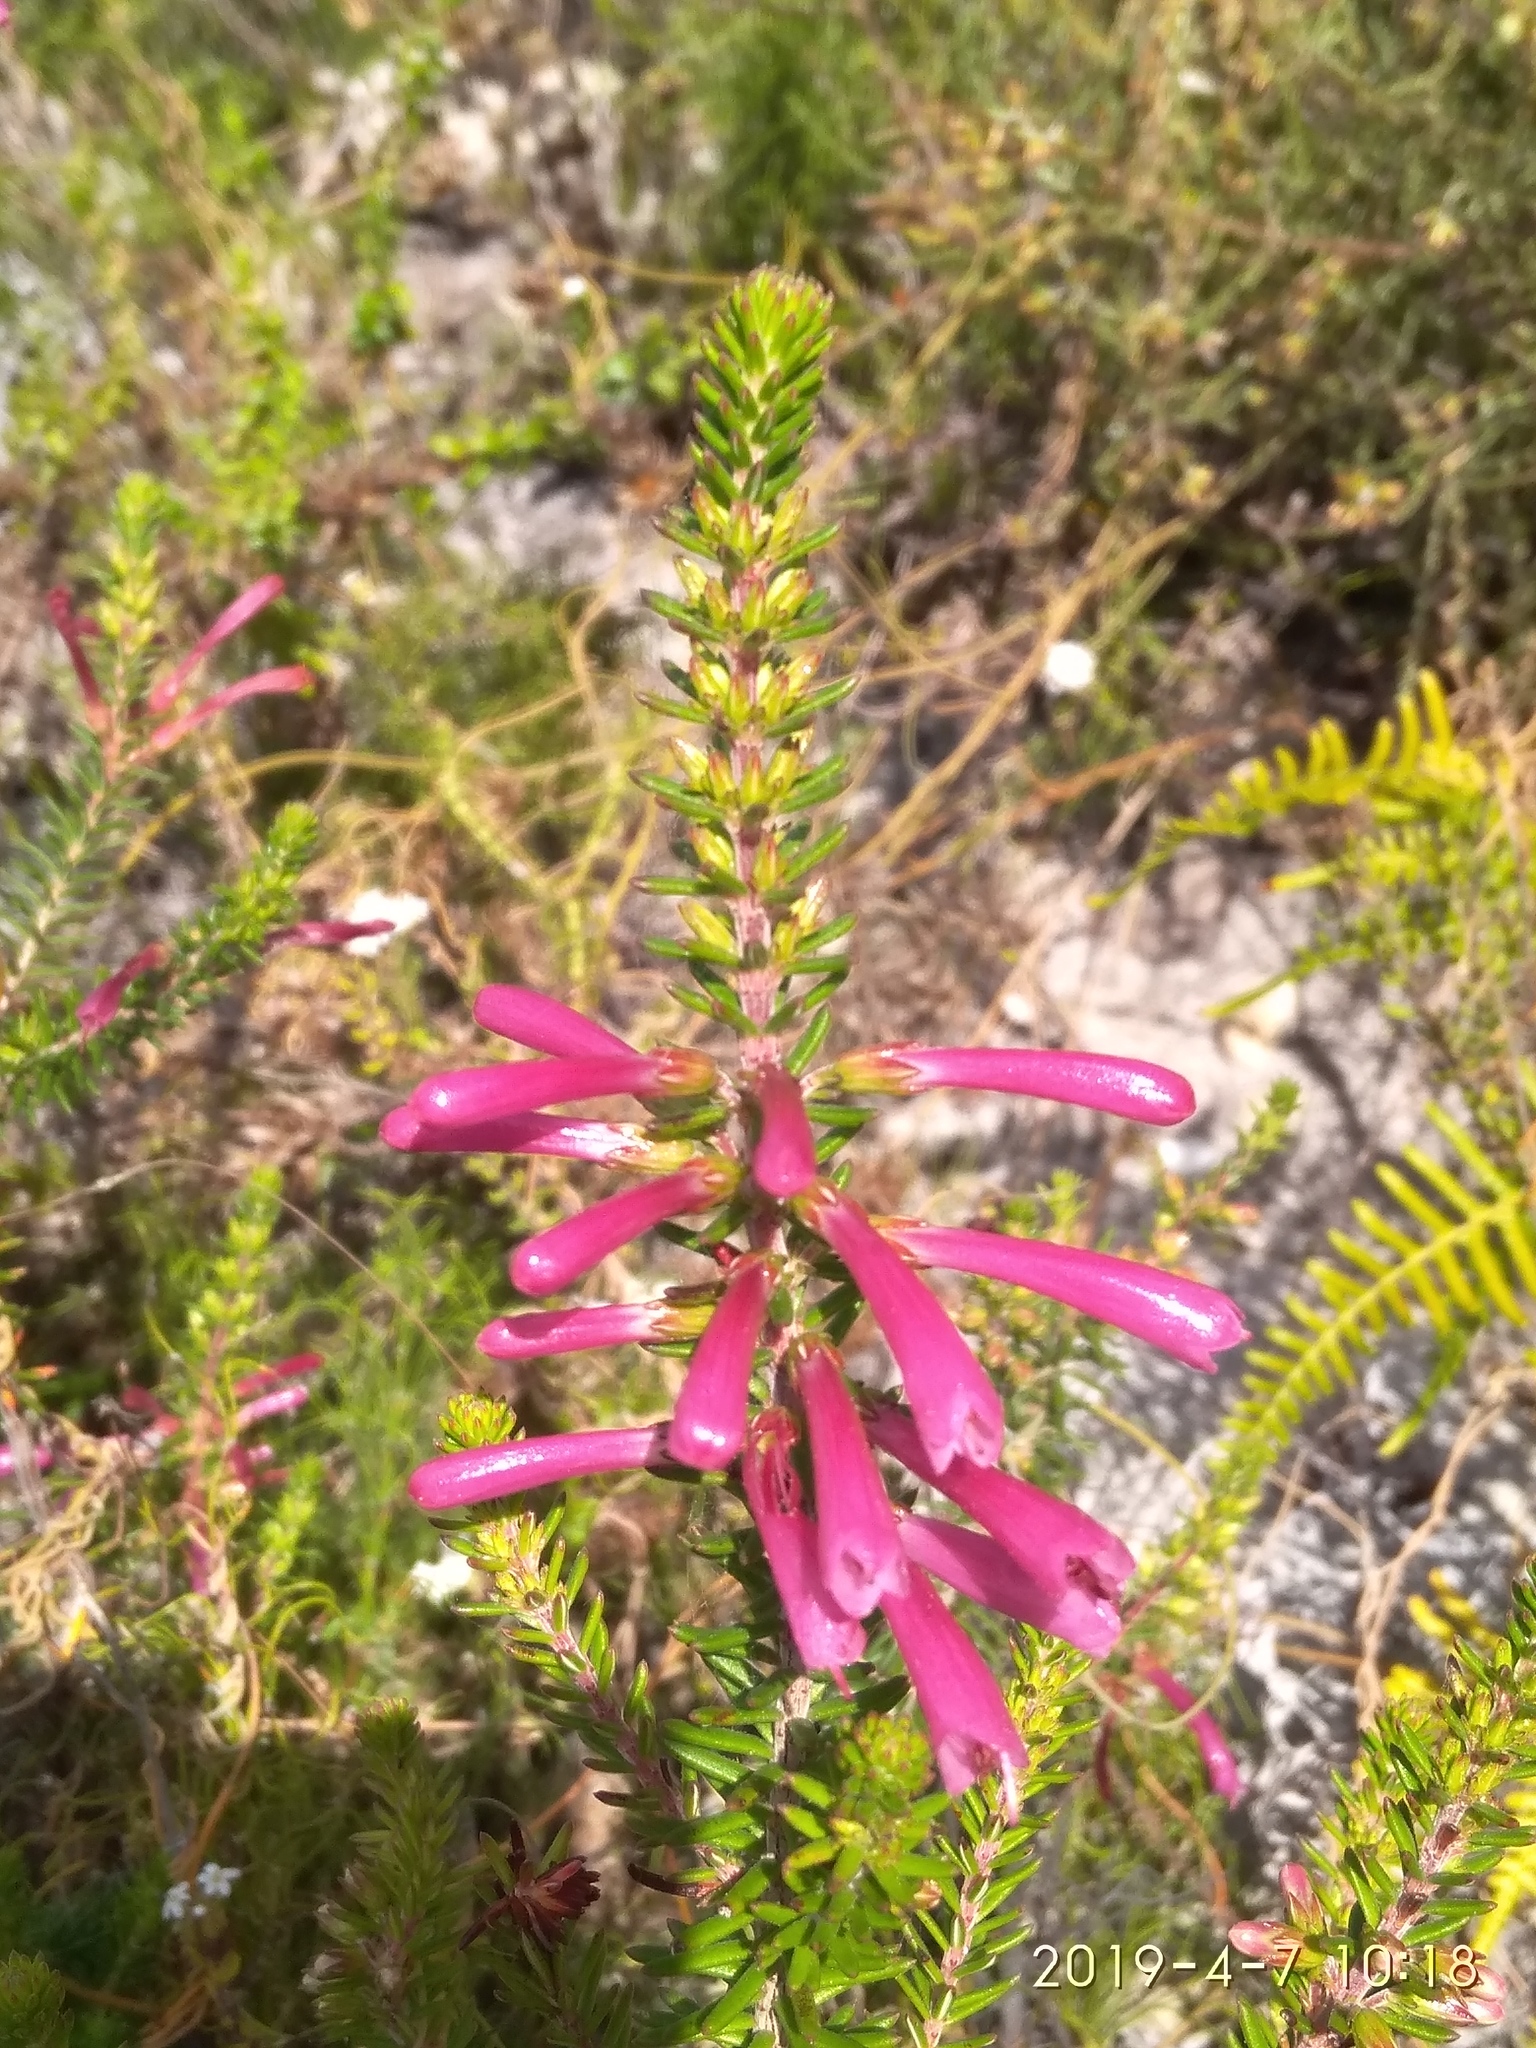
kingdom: Plantae
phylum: Tracheophyta
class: Magnoliopsida
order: Ericales
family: Ericaceae
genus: Erica
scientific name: Erica abietina
